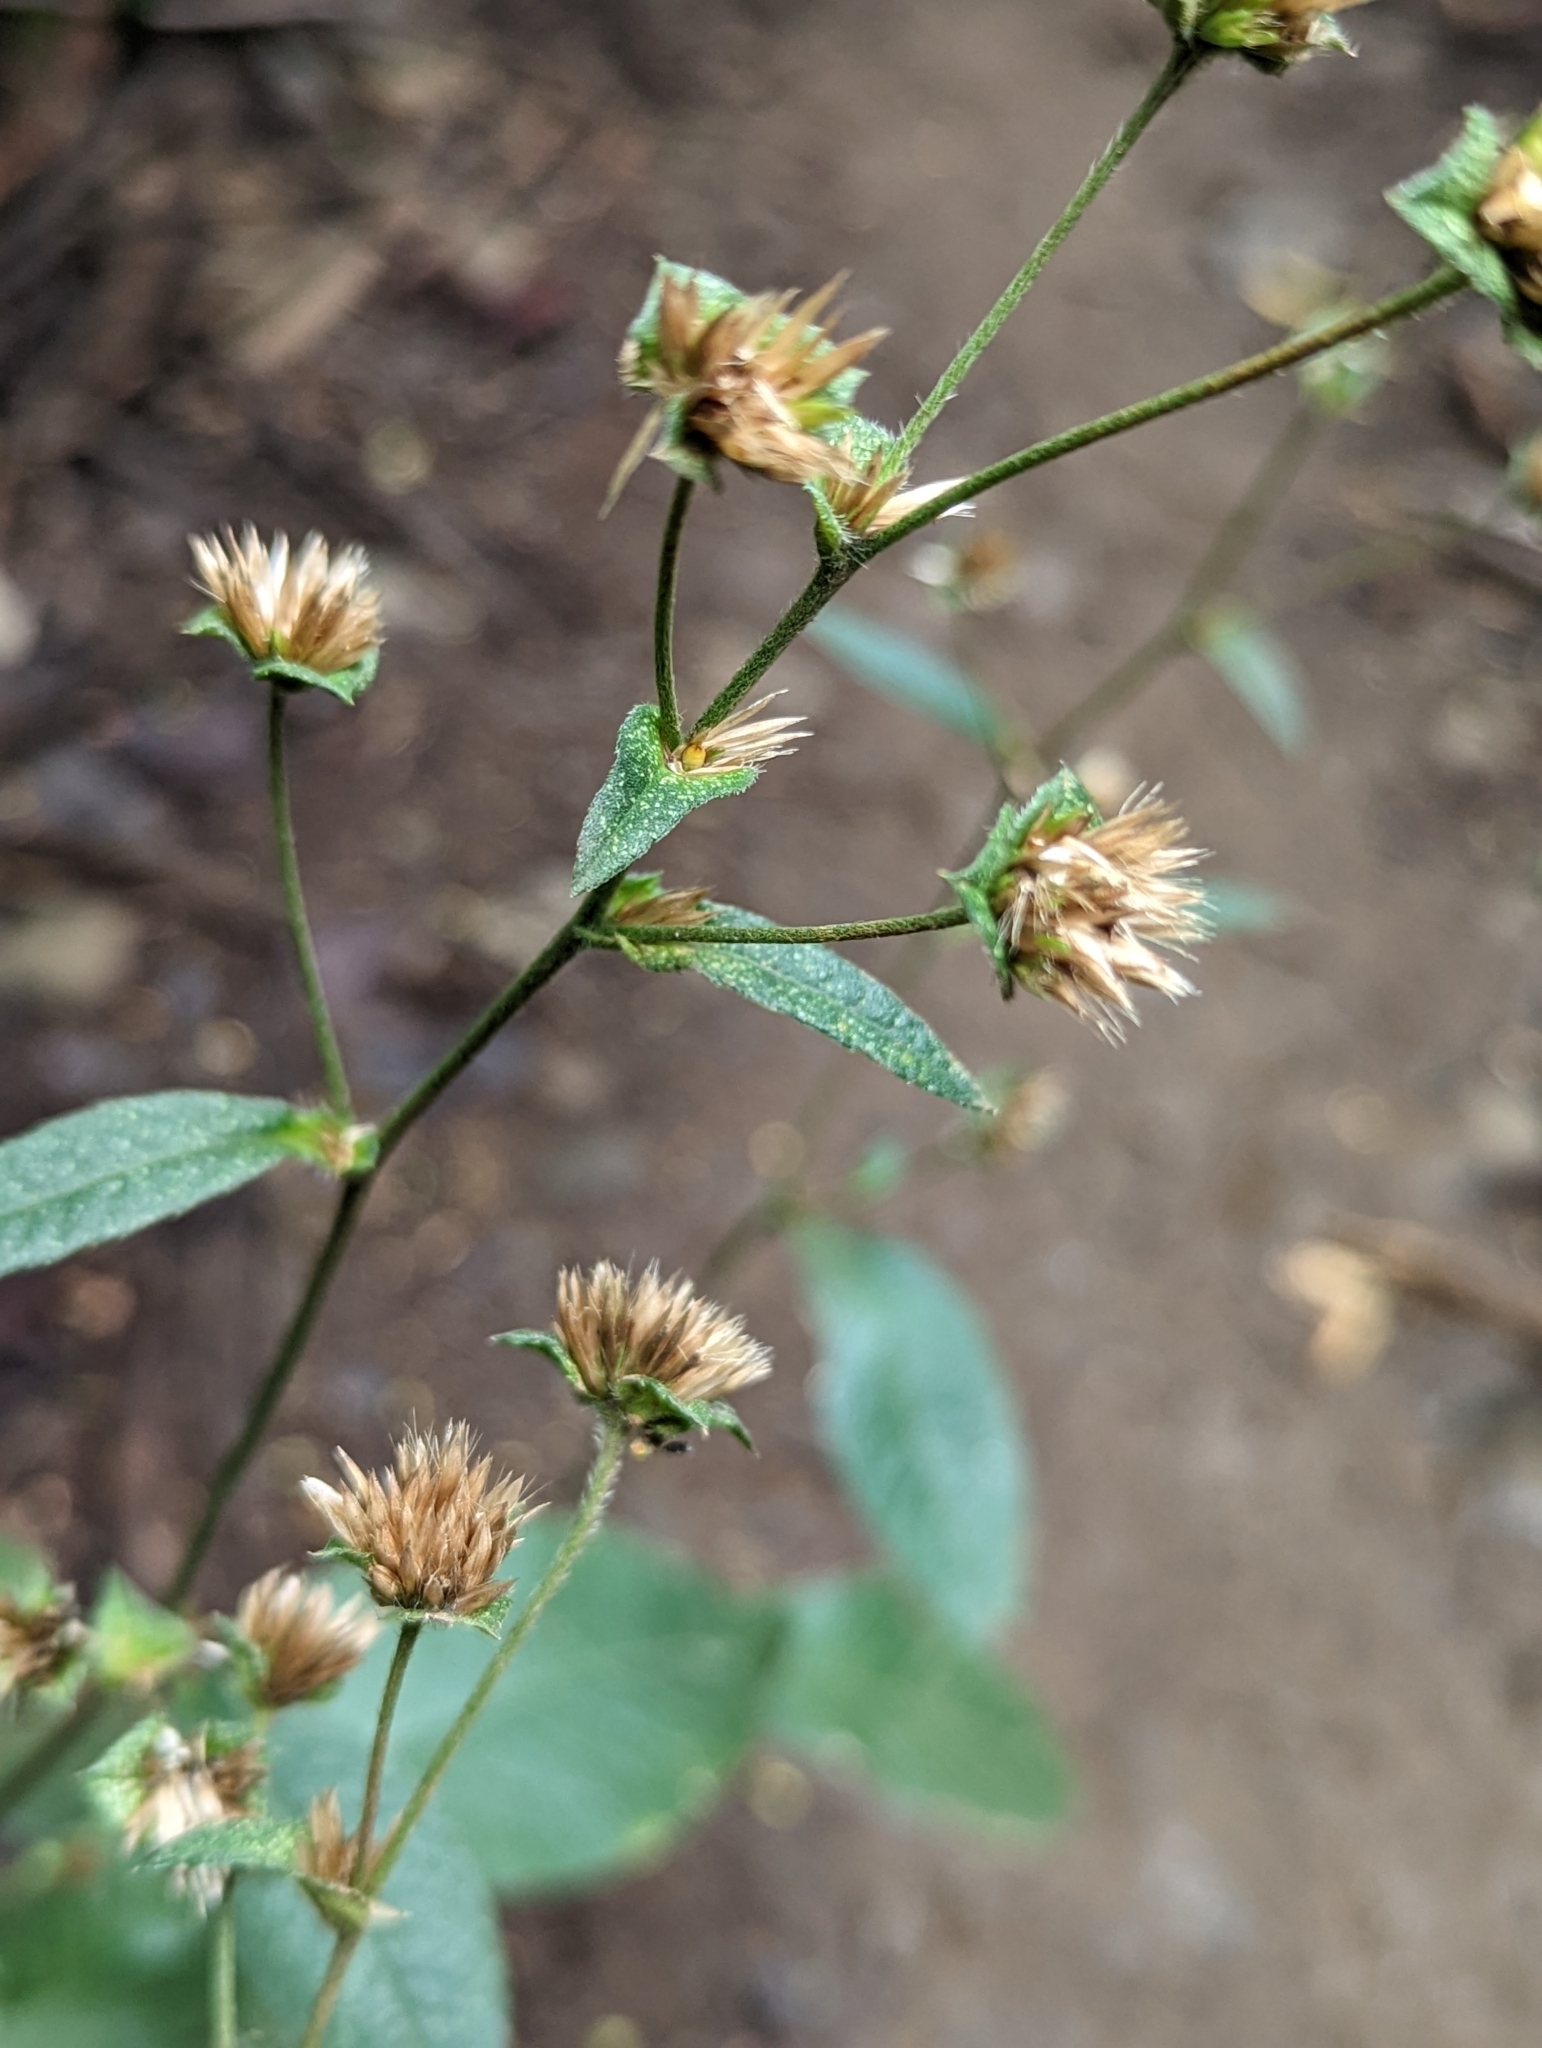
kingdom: Plantae
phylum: Tracheophyta
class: Magnoliopsida
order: Asterales
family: Asteraceae
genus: Elephantopus
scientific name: Elephantopus mollis
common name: Soft elephantsfoot
